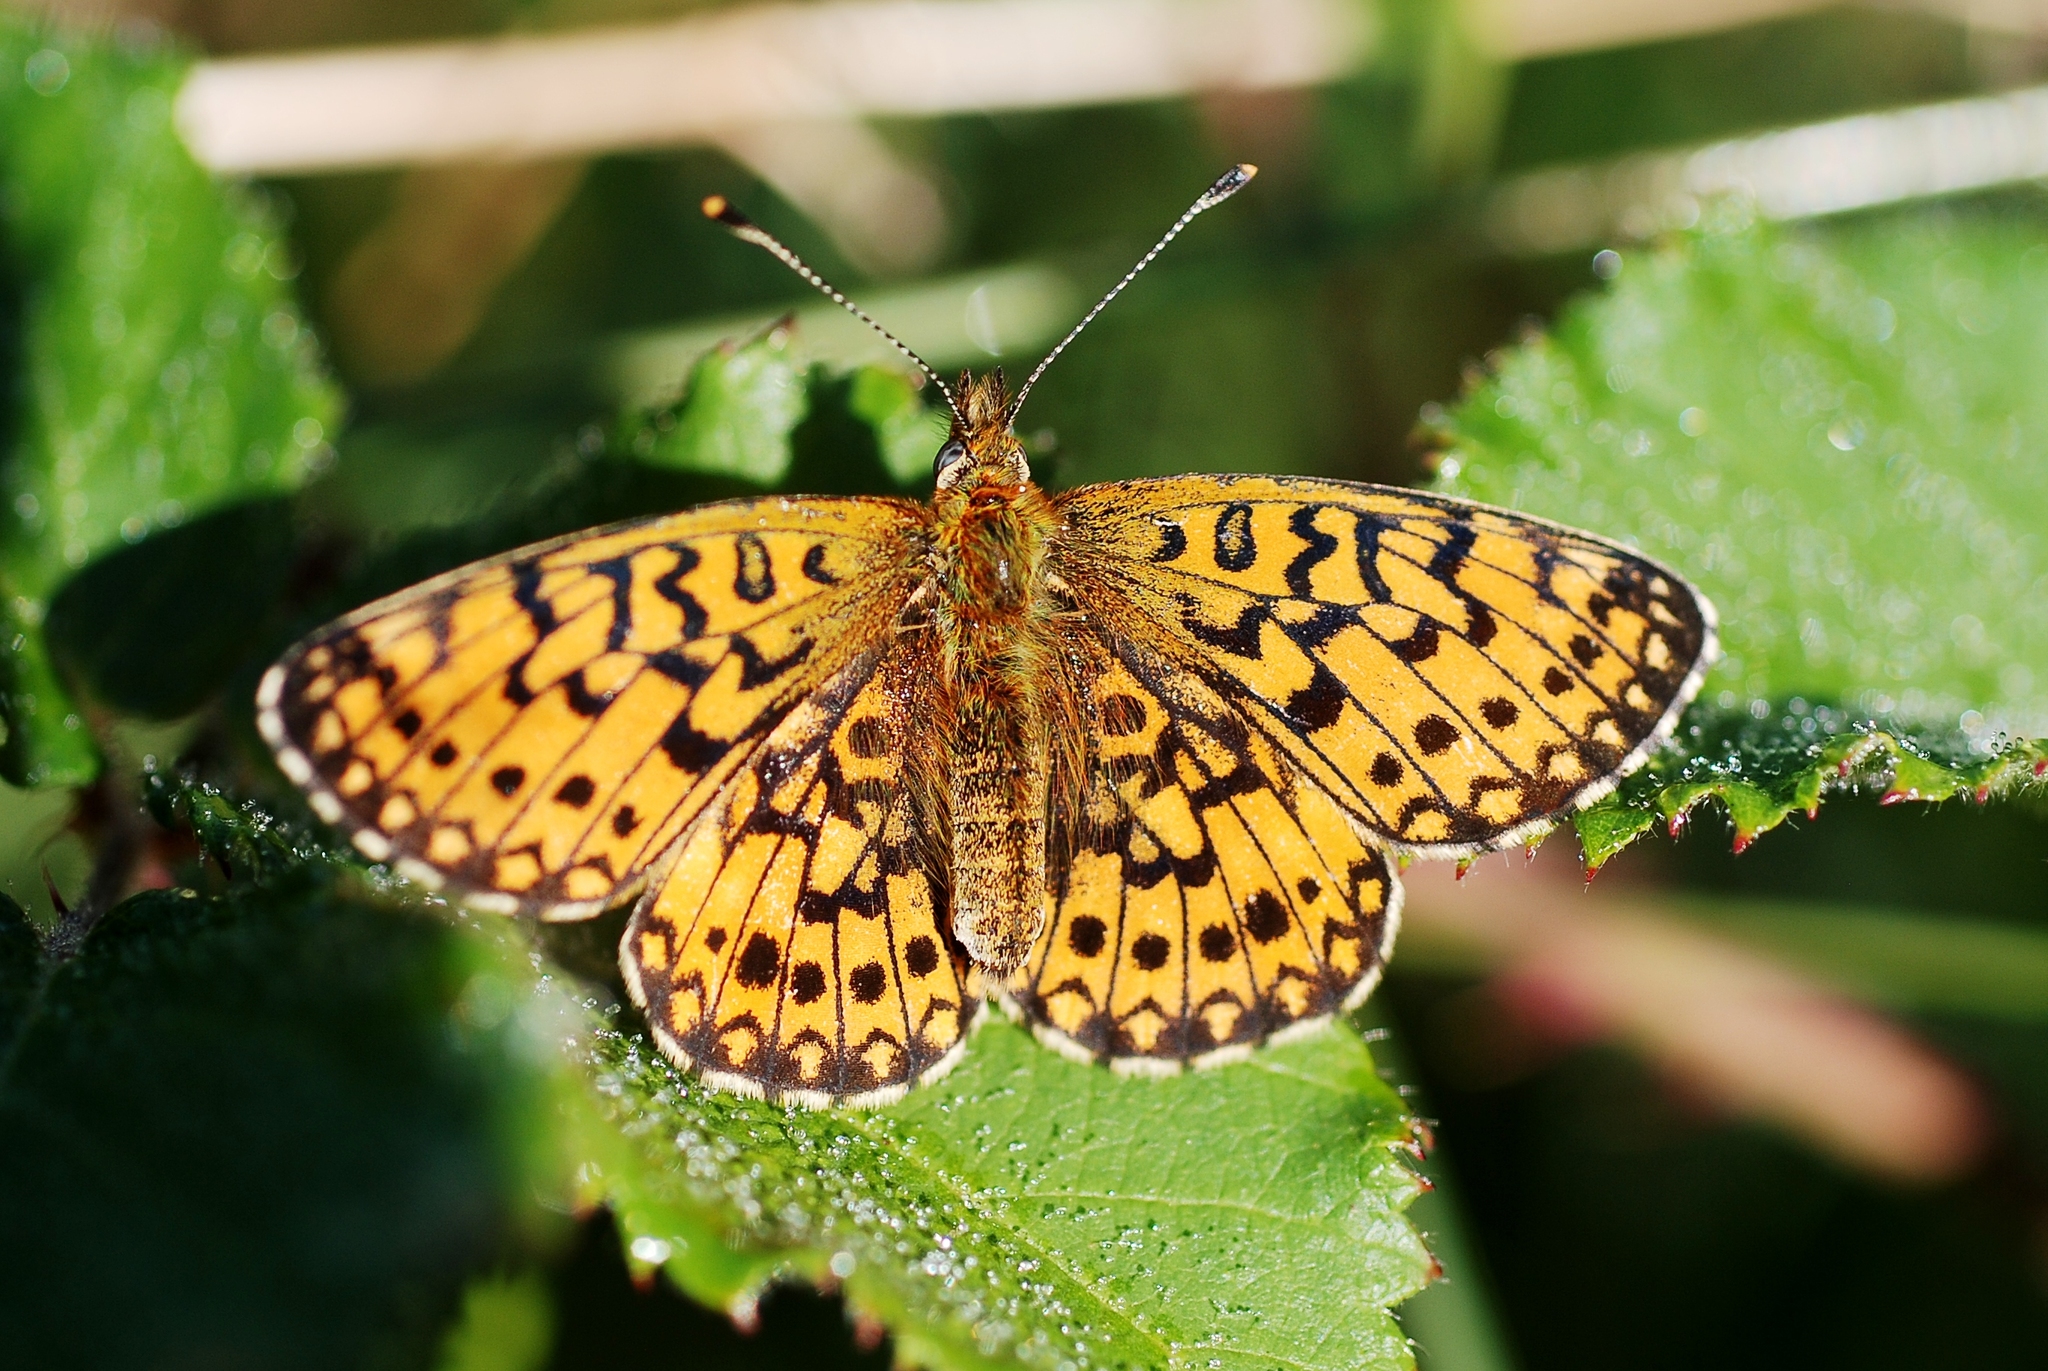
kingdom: Animalia
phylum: Arthropoda
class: Insecta
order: Lepidoptera
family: Nymphalidae
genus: Boloria
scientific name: Boloria selene
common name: Small pearl-bordered fritillary
